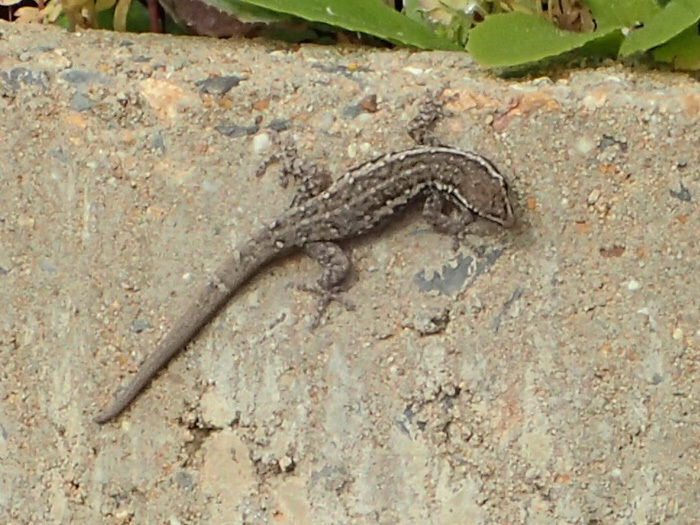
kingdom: Animalia
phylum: Chordata
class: Squamata
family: Gekkonidae
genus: Lygodactylus
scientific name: Lygodactylus capensis
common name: Cape dwarf gecko
